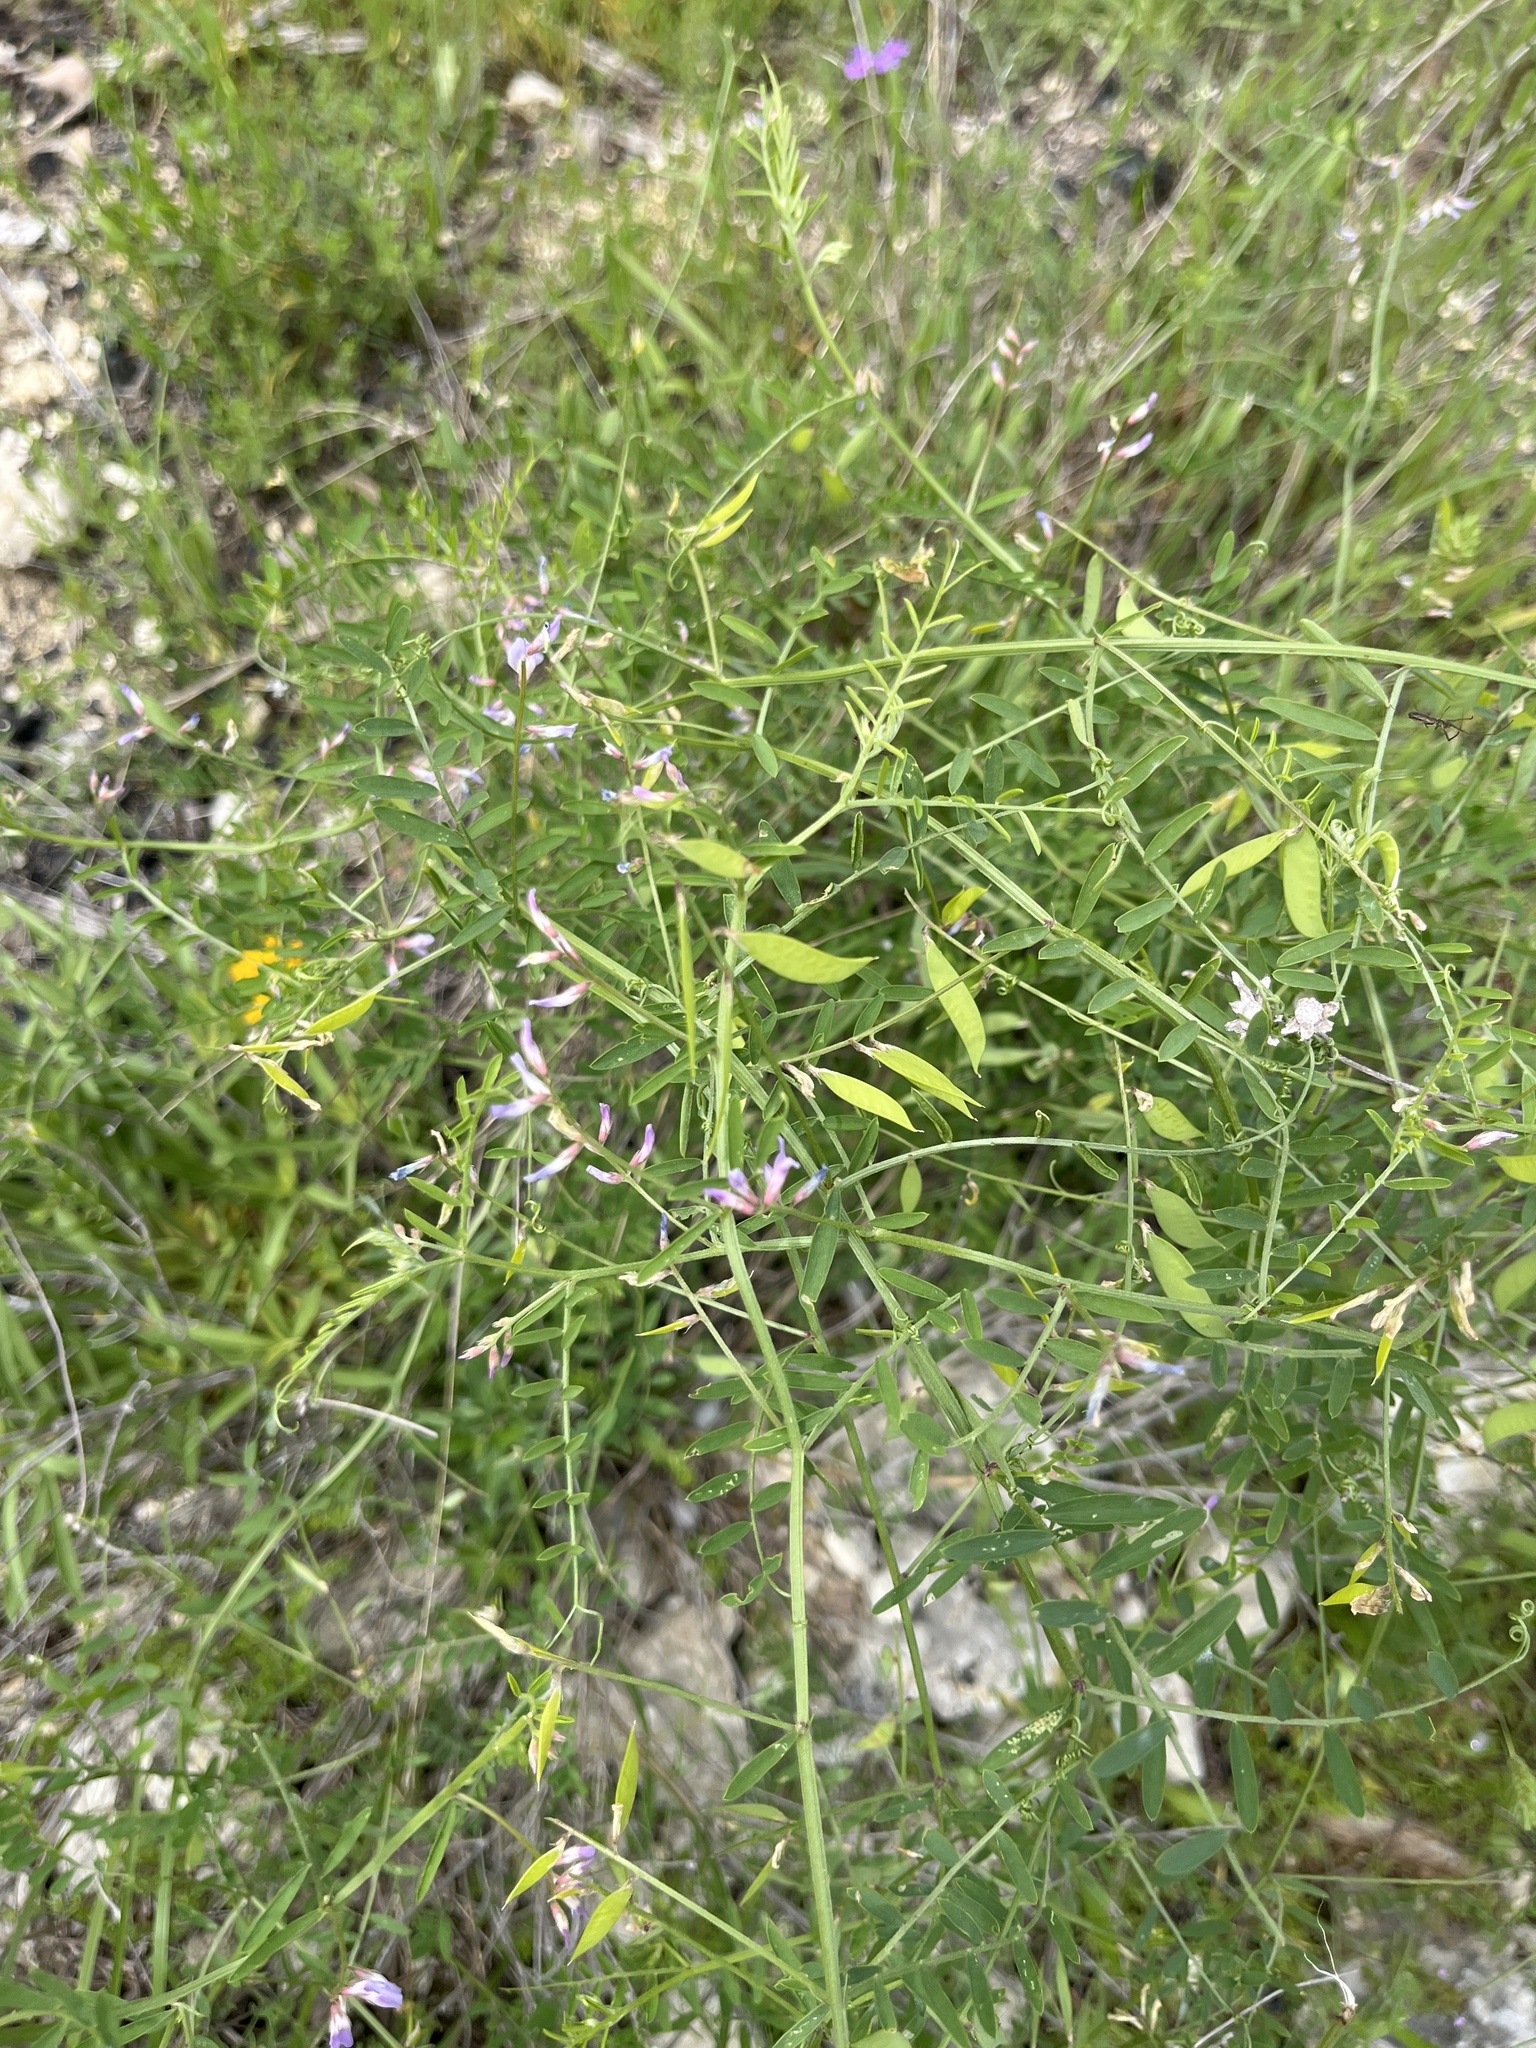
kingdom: Plantae
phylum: Tracheophyta
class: Magnoliopsida
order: Fabales
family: Fabaceae
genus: Vicia
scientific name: Vicia ludoviciana
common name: Louisiana vetch
